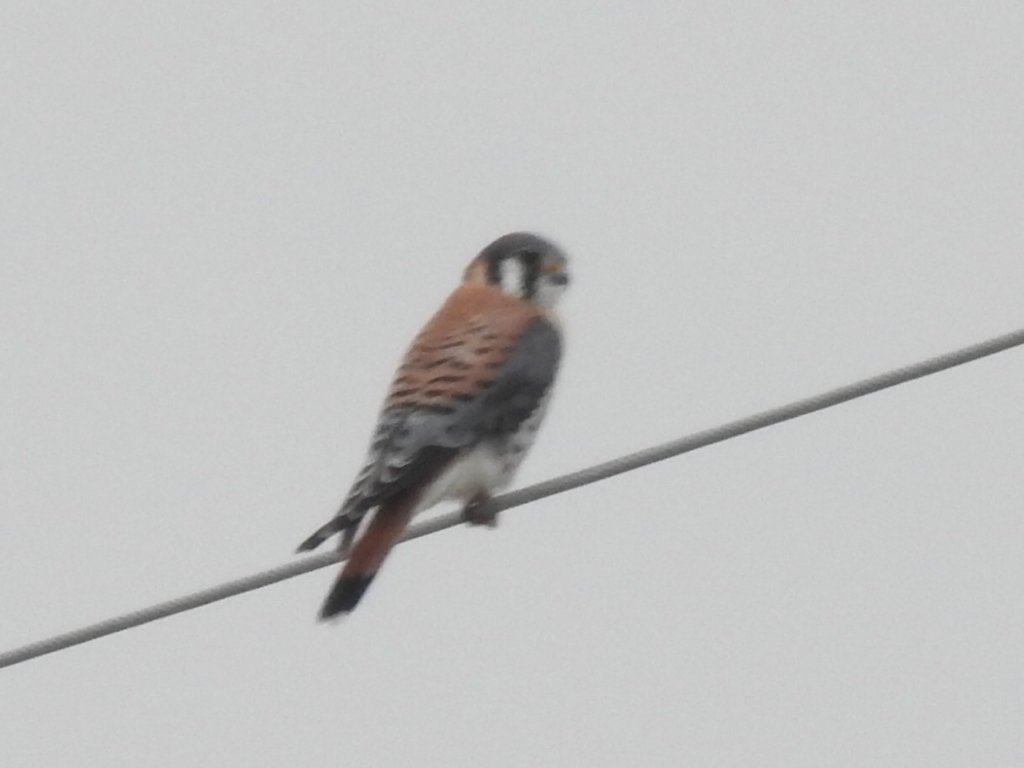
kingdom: Animalia
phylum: Chordata
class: Aves
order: Falconiformes
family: Falconidae
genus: Falco
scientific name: Falco sparverius
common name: American kestrel
